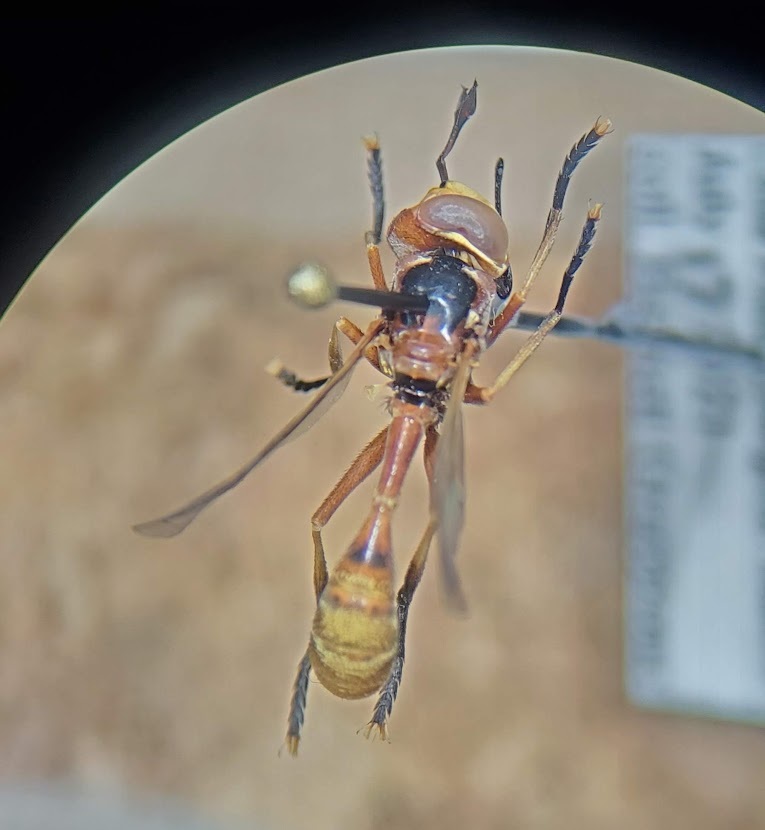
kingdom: Animalia
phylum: Arthropoda
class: Insecta
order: Diptera
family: Conopidae
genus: Physoconops
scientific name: Physoconops fronto
